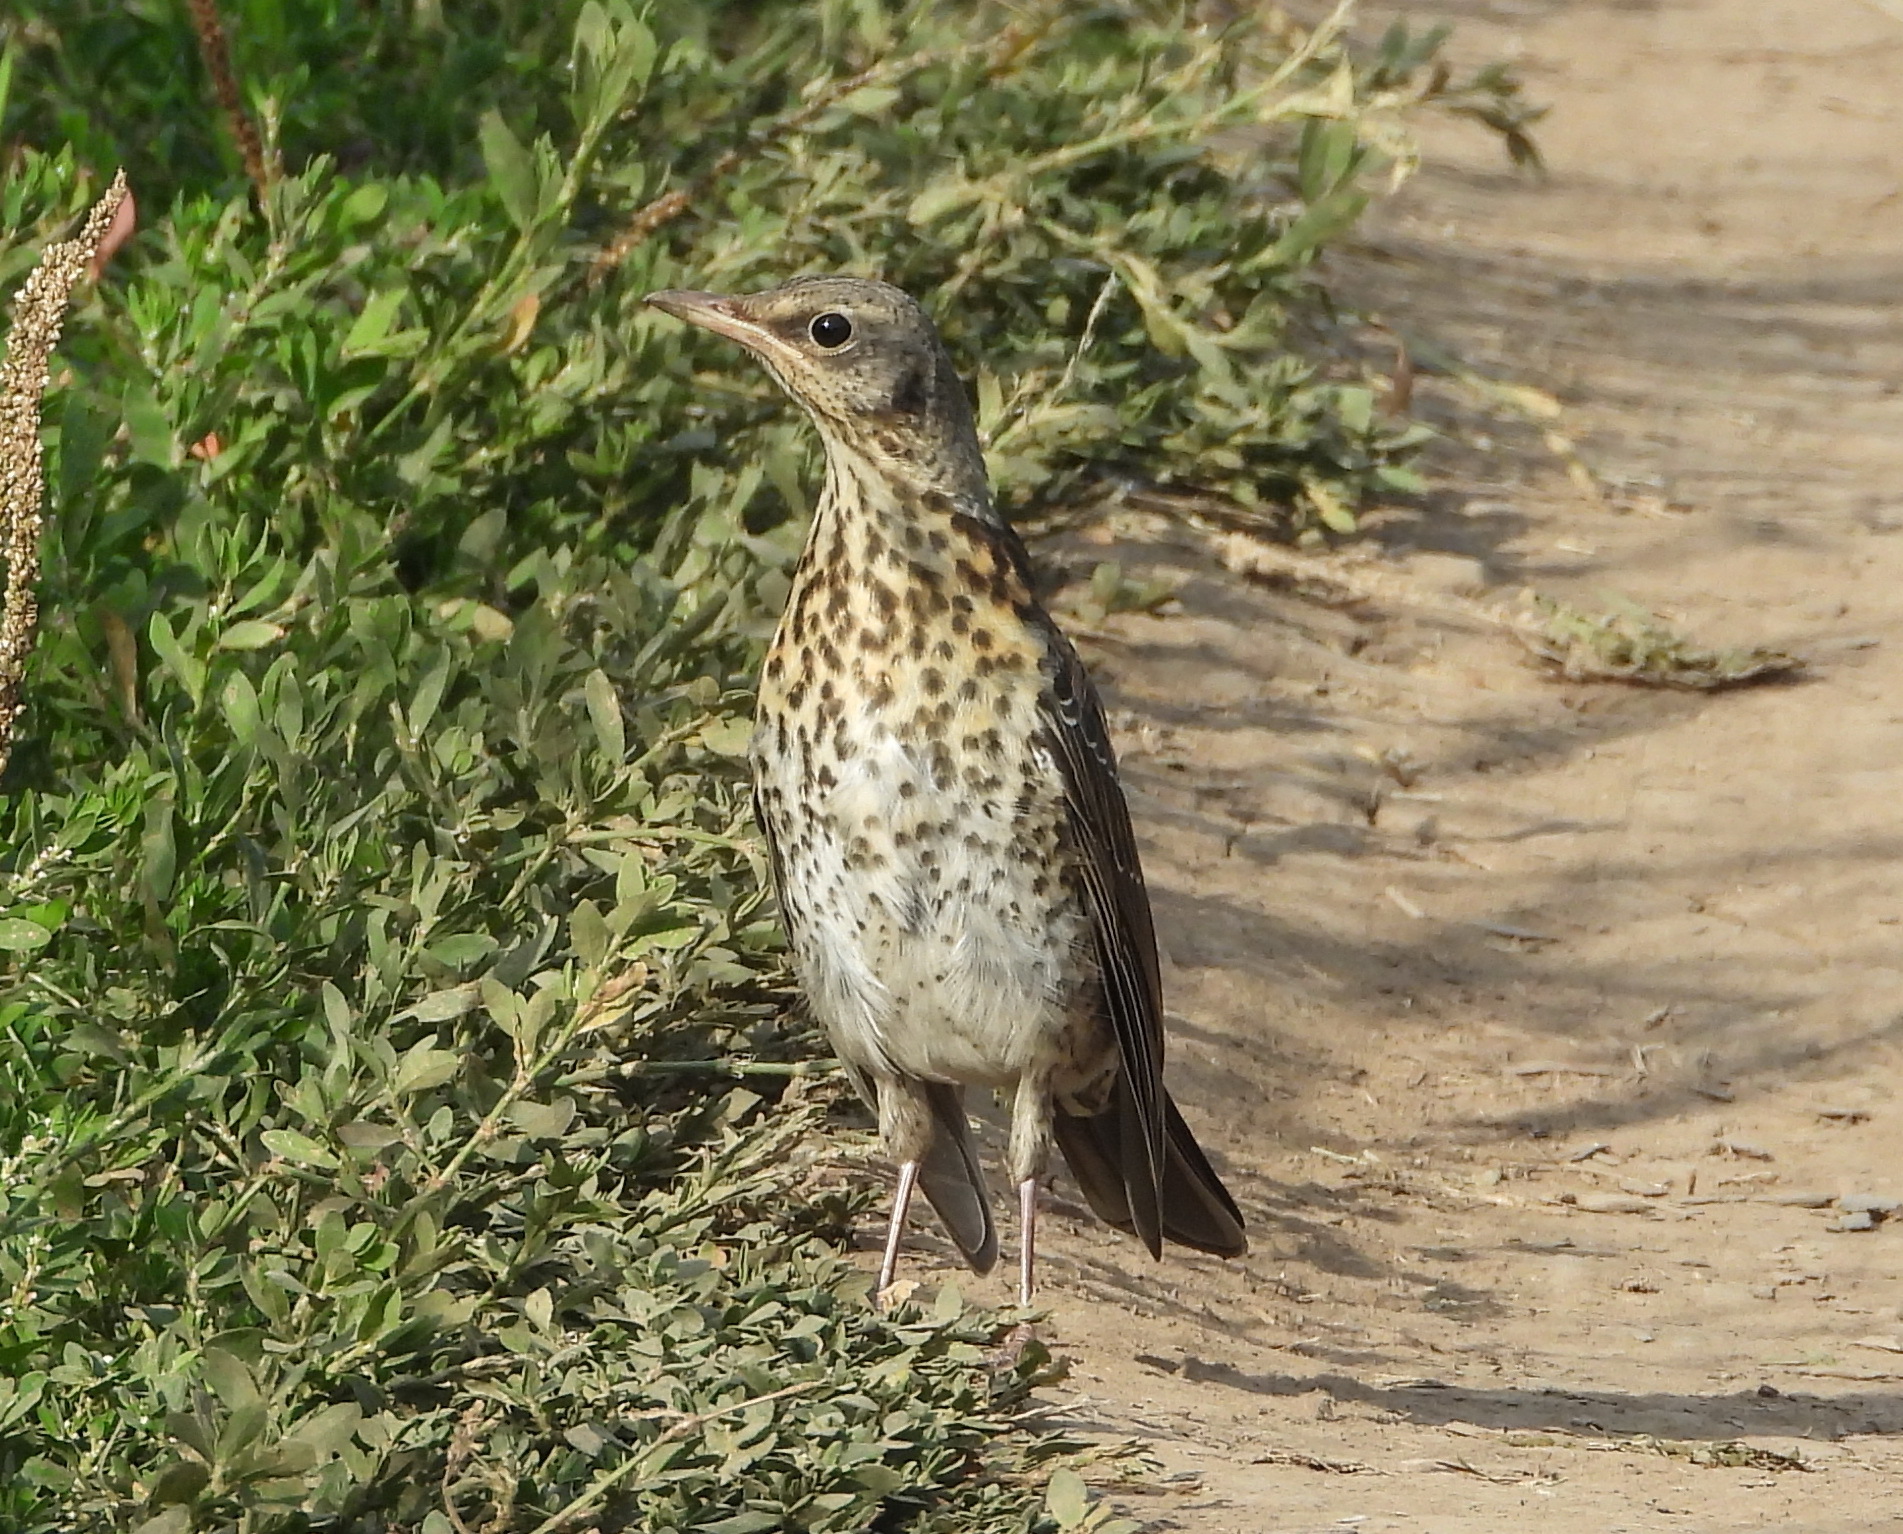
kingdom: Animalia
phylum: Chordata
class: Aves
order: Passeriformes
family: Turdidae
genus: Turdus
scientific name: Turdus pilaris
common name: Fieldfare
